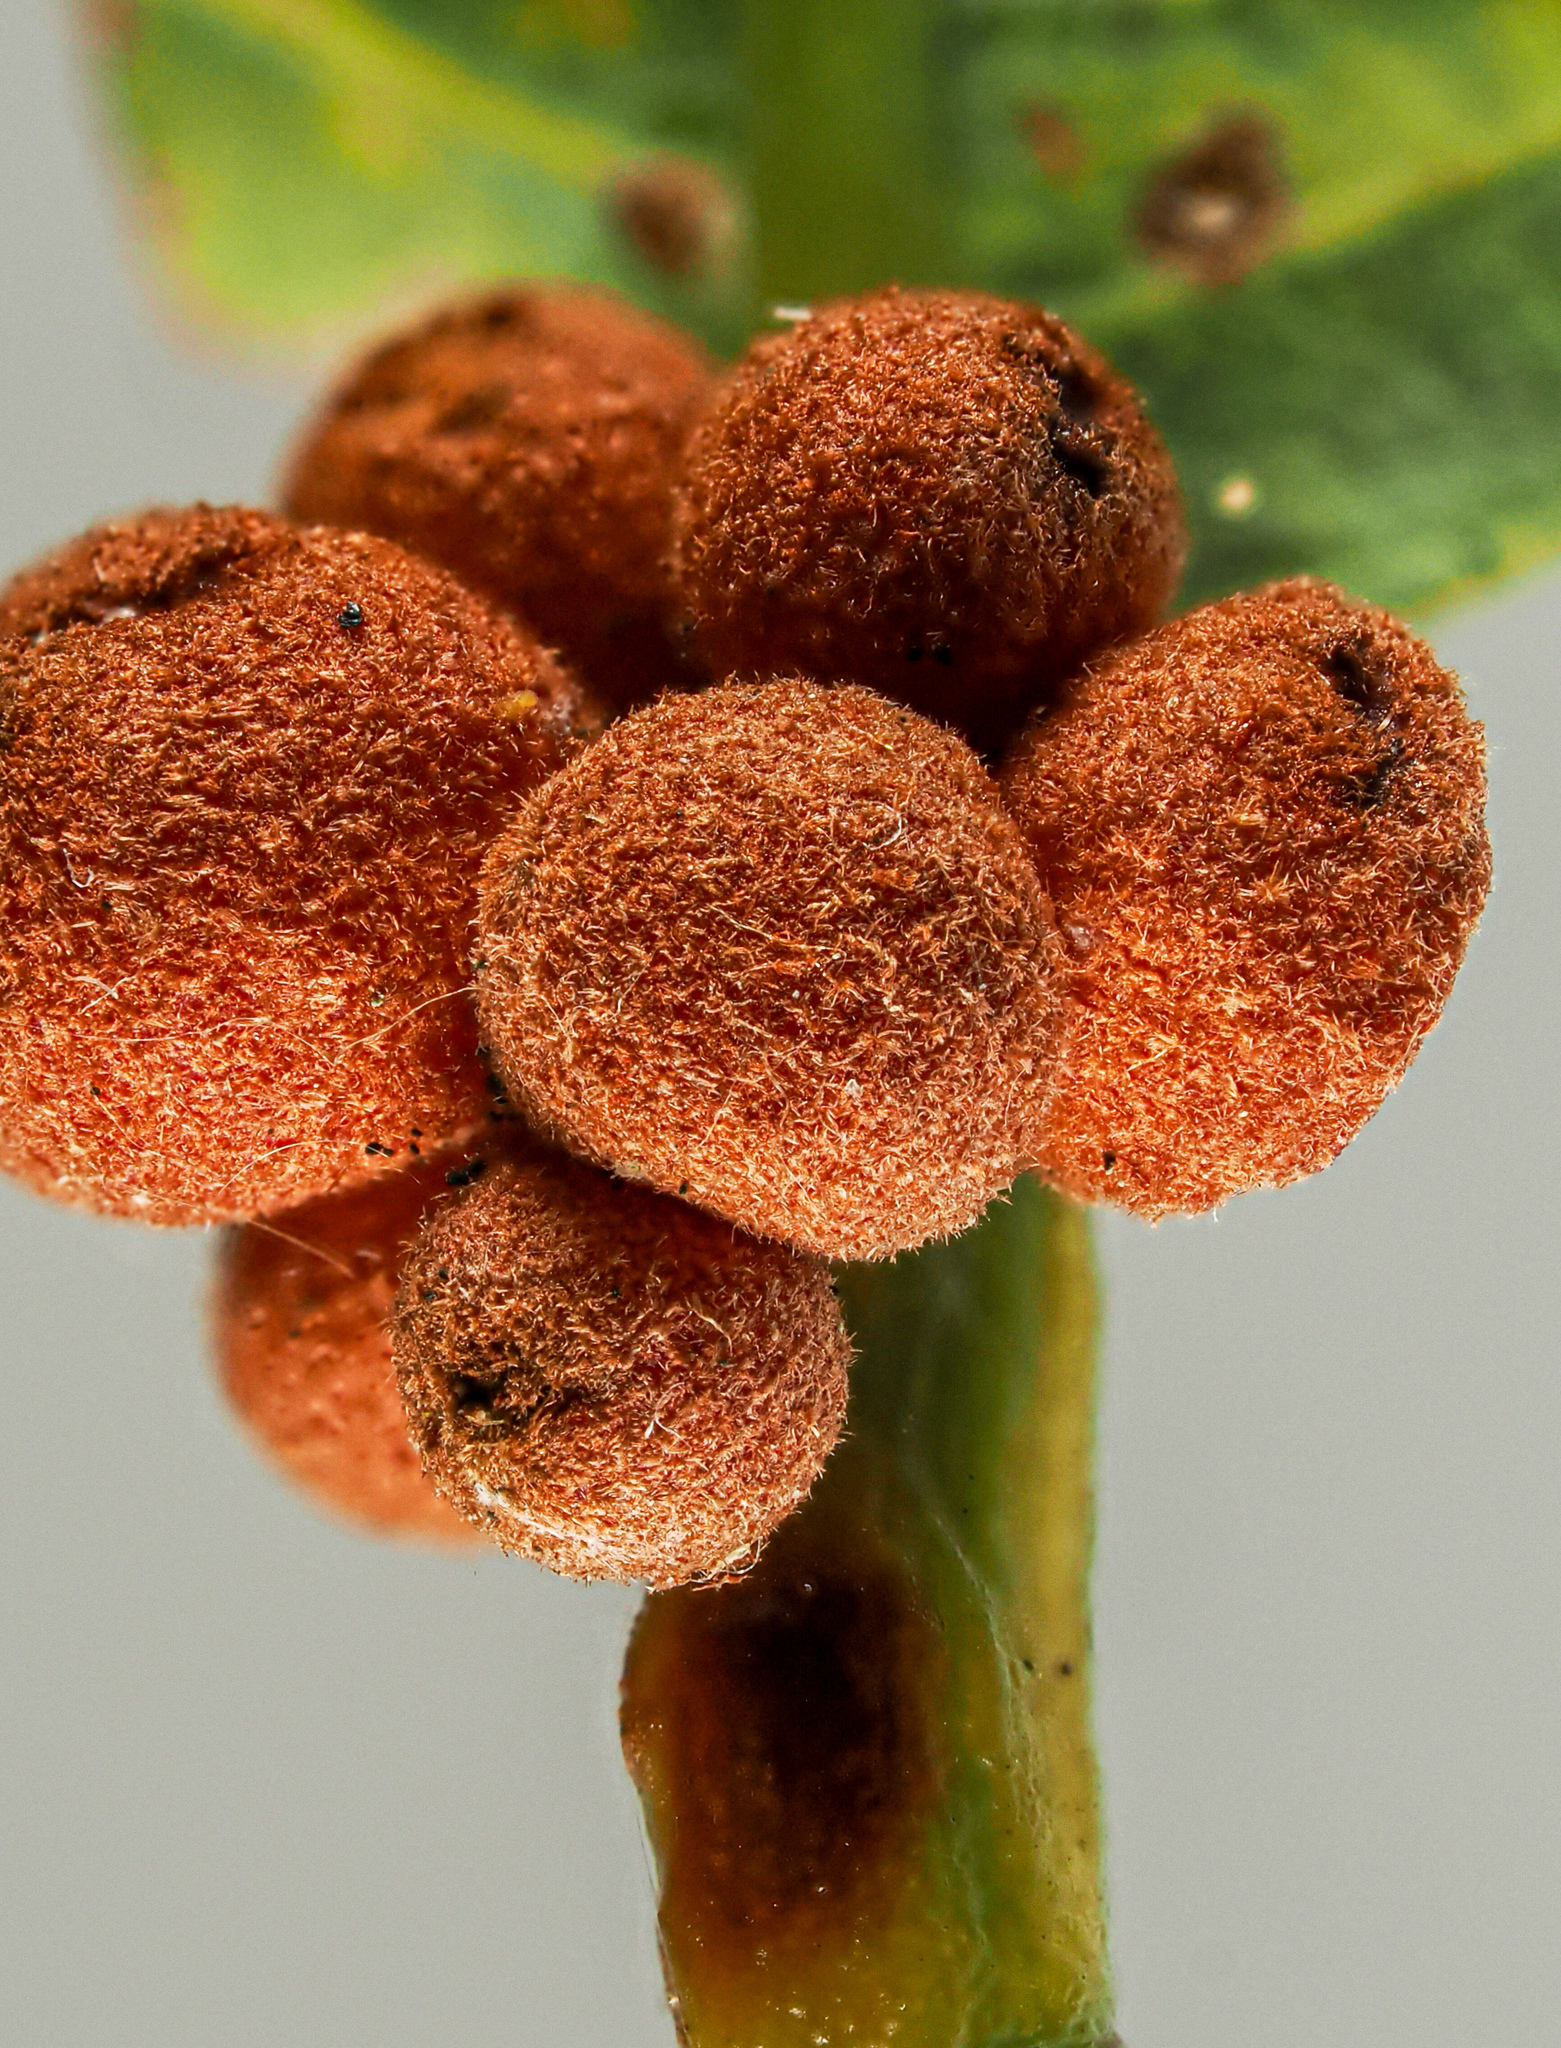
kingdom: Animalia
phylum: Arthropoda
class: Insecta
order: Hymenoptera
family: Cynipidae
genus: Andricus
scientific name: Andricus
